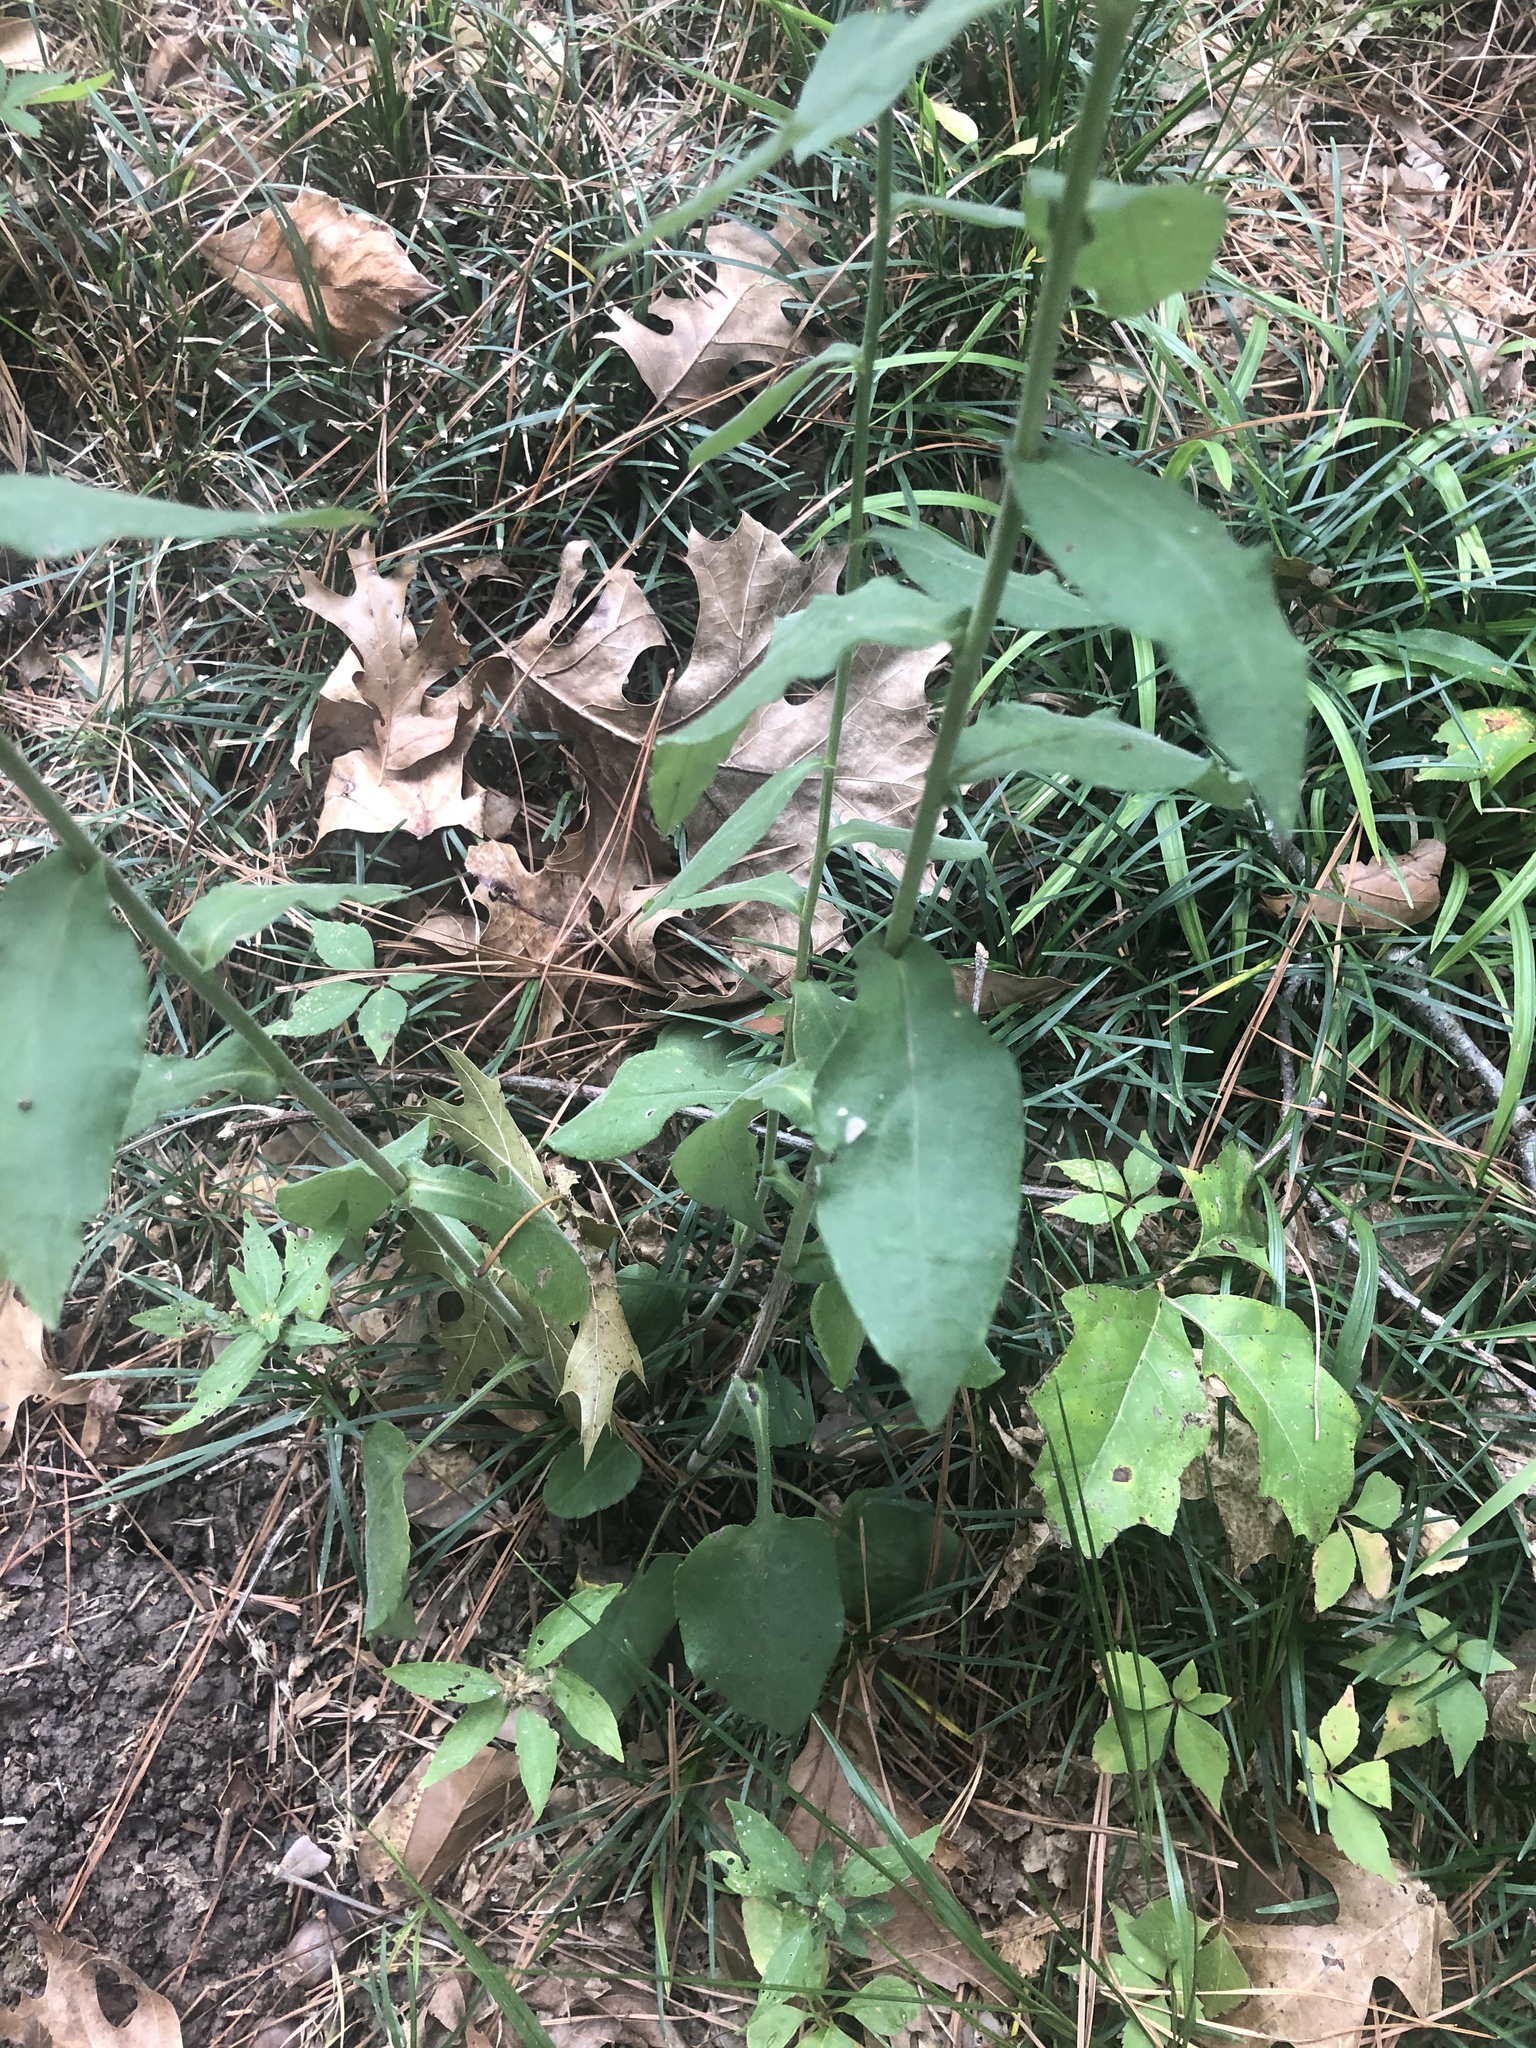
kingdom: Plantae
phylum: Tracheophyta
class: Magnoliopsida
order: Asterales
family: Asteraceae
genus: Symphyotrichum
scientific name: Symphyotrichum undulatum
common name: Clasping heart-leaf aster
